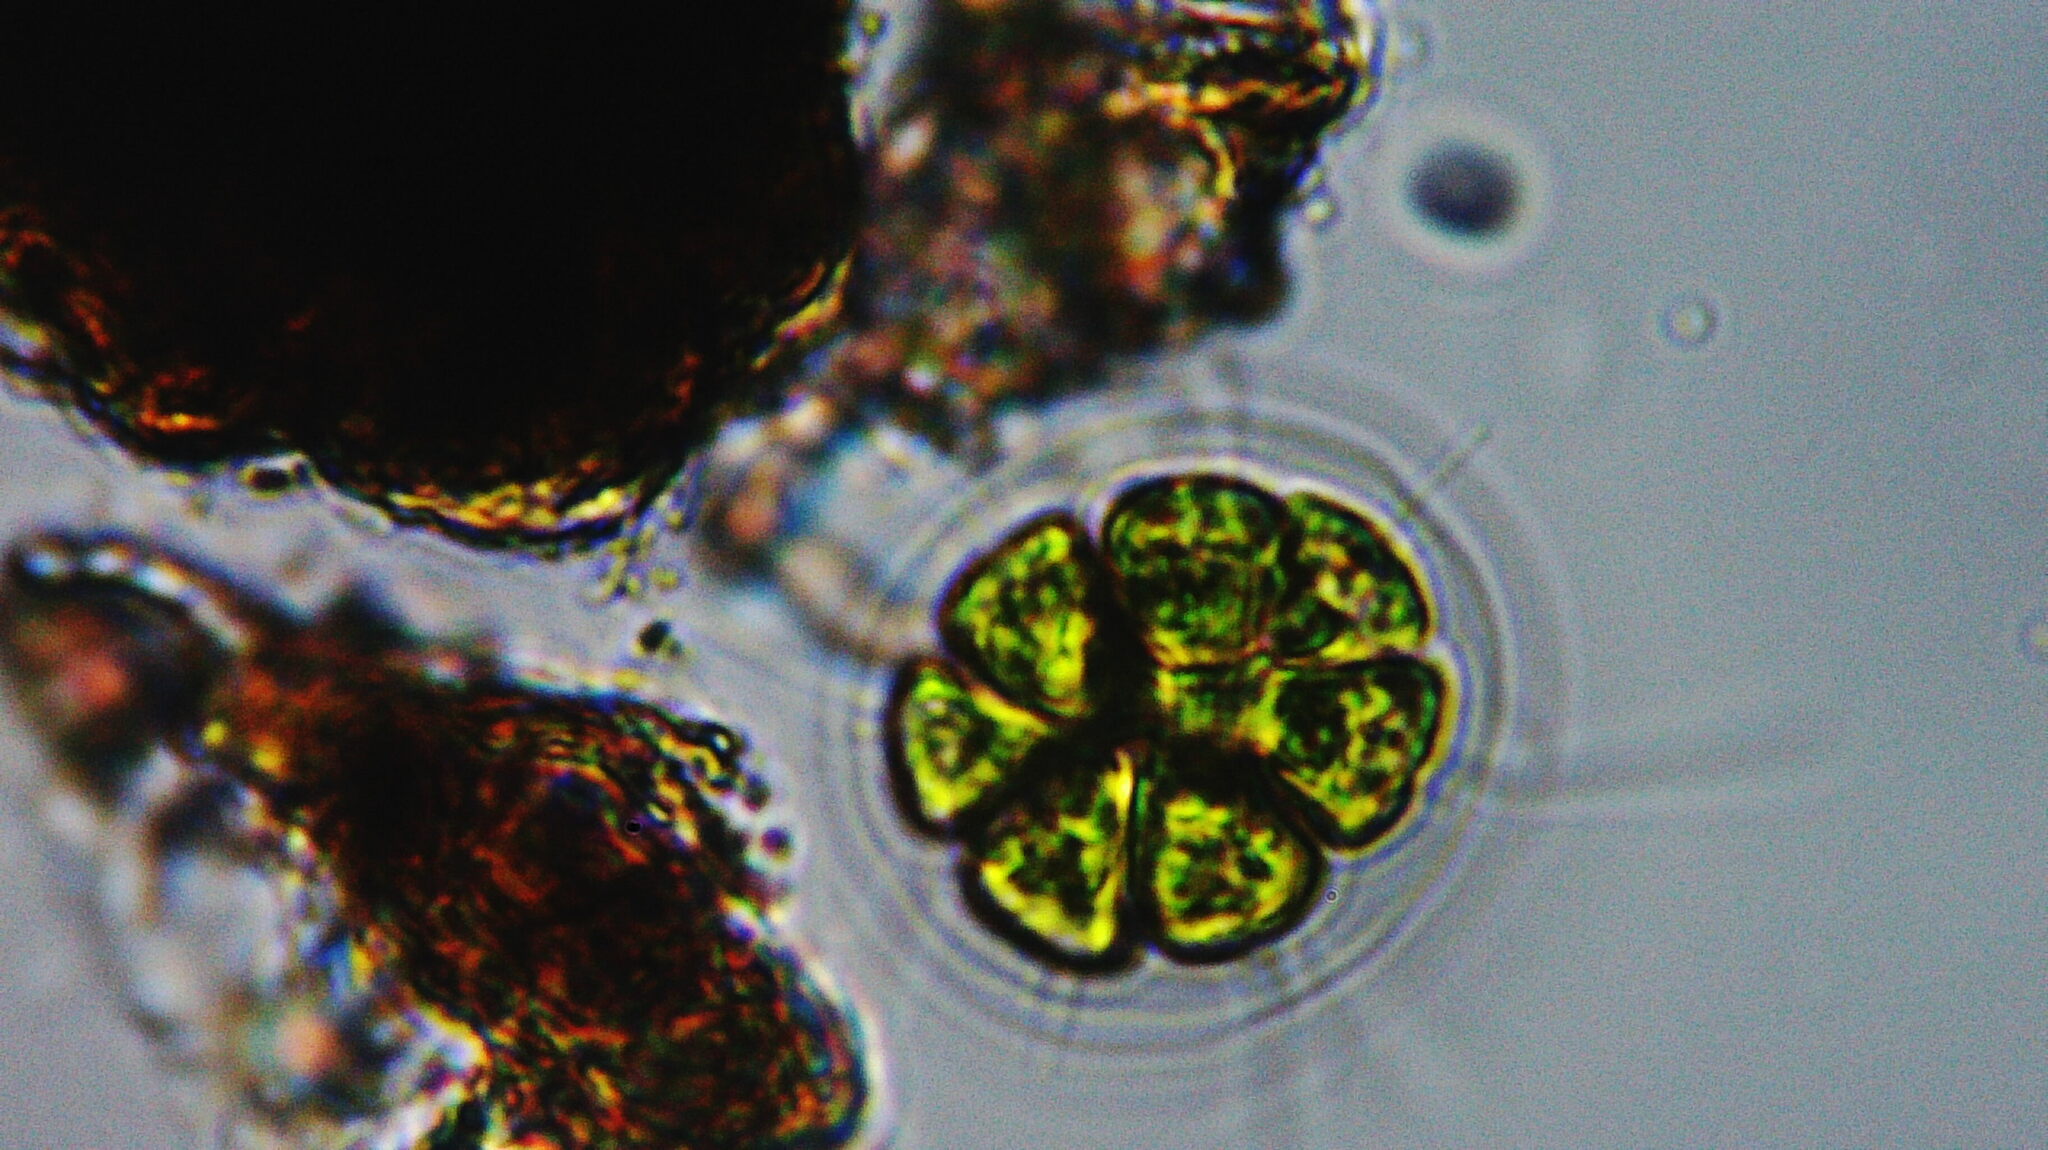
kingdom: Plantae
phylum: Chlorophyta
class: Chlorophyceae
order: Volvocales
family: Volvocaceae
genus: Pandorina
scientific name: Pandorina morum
